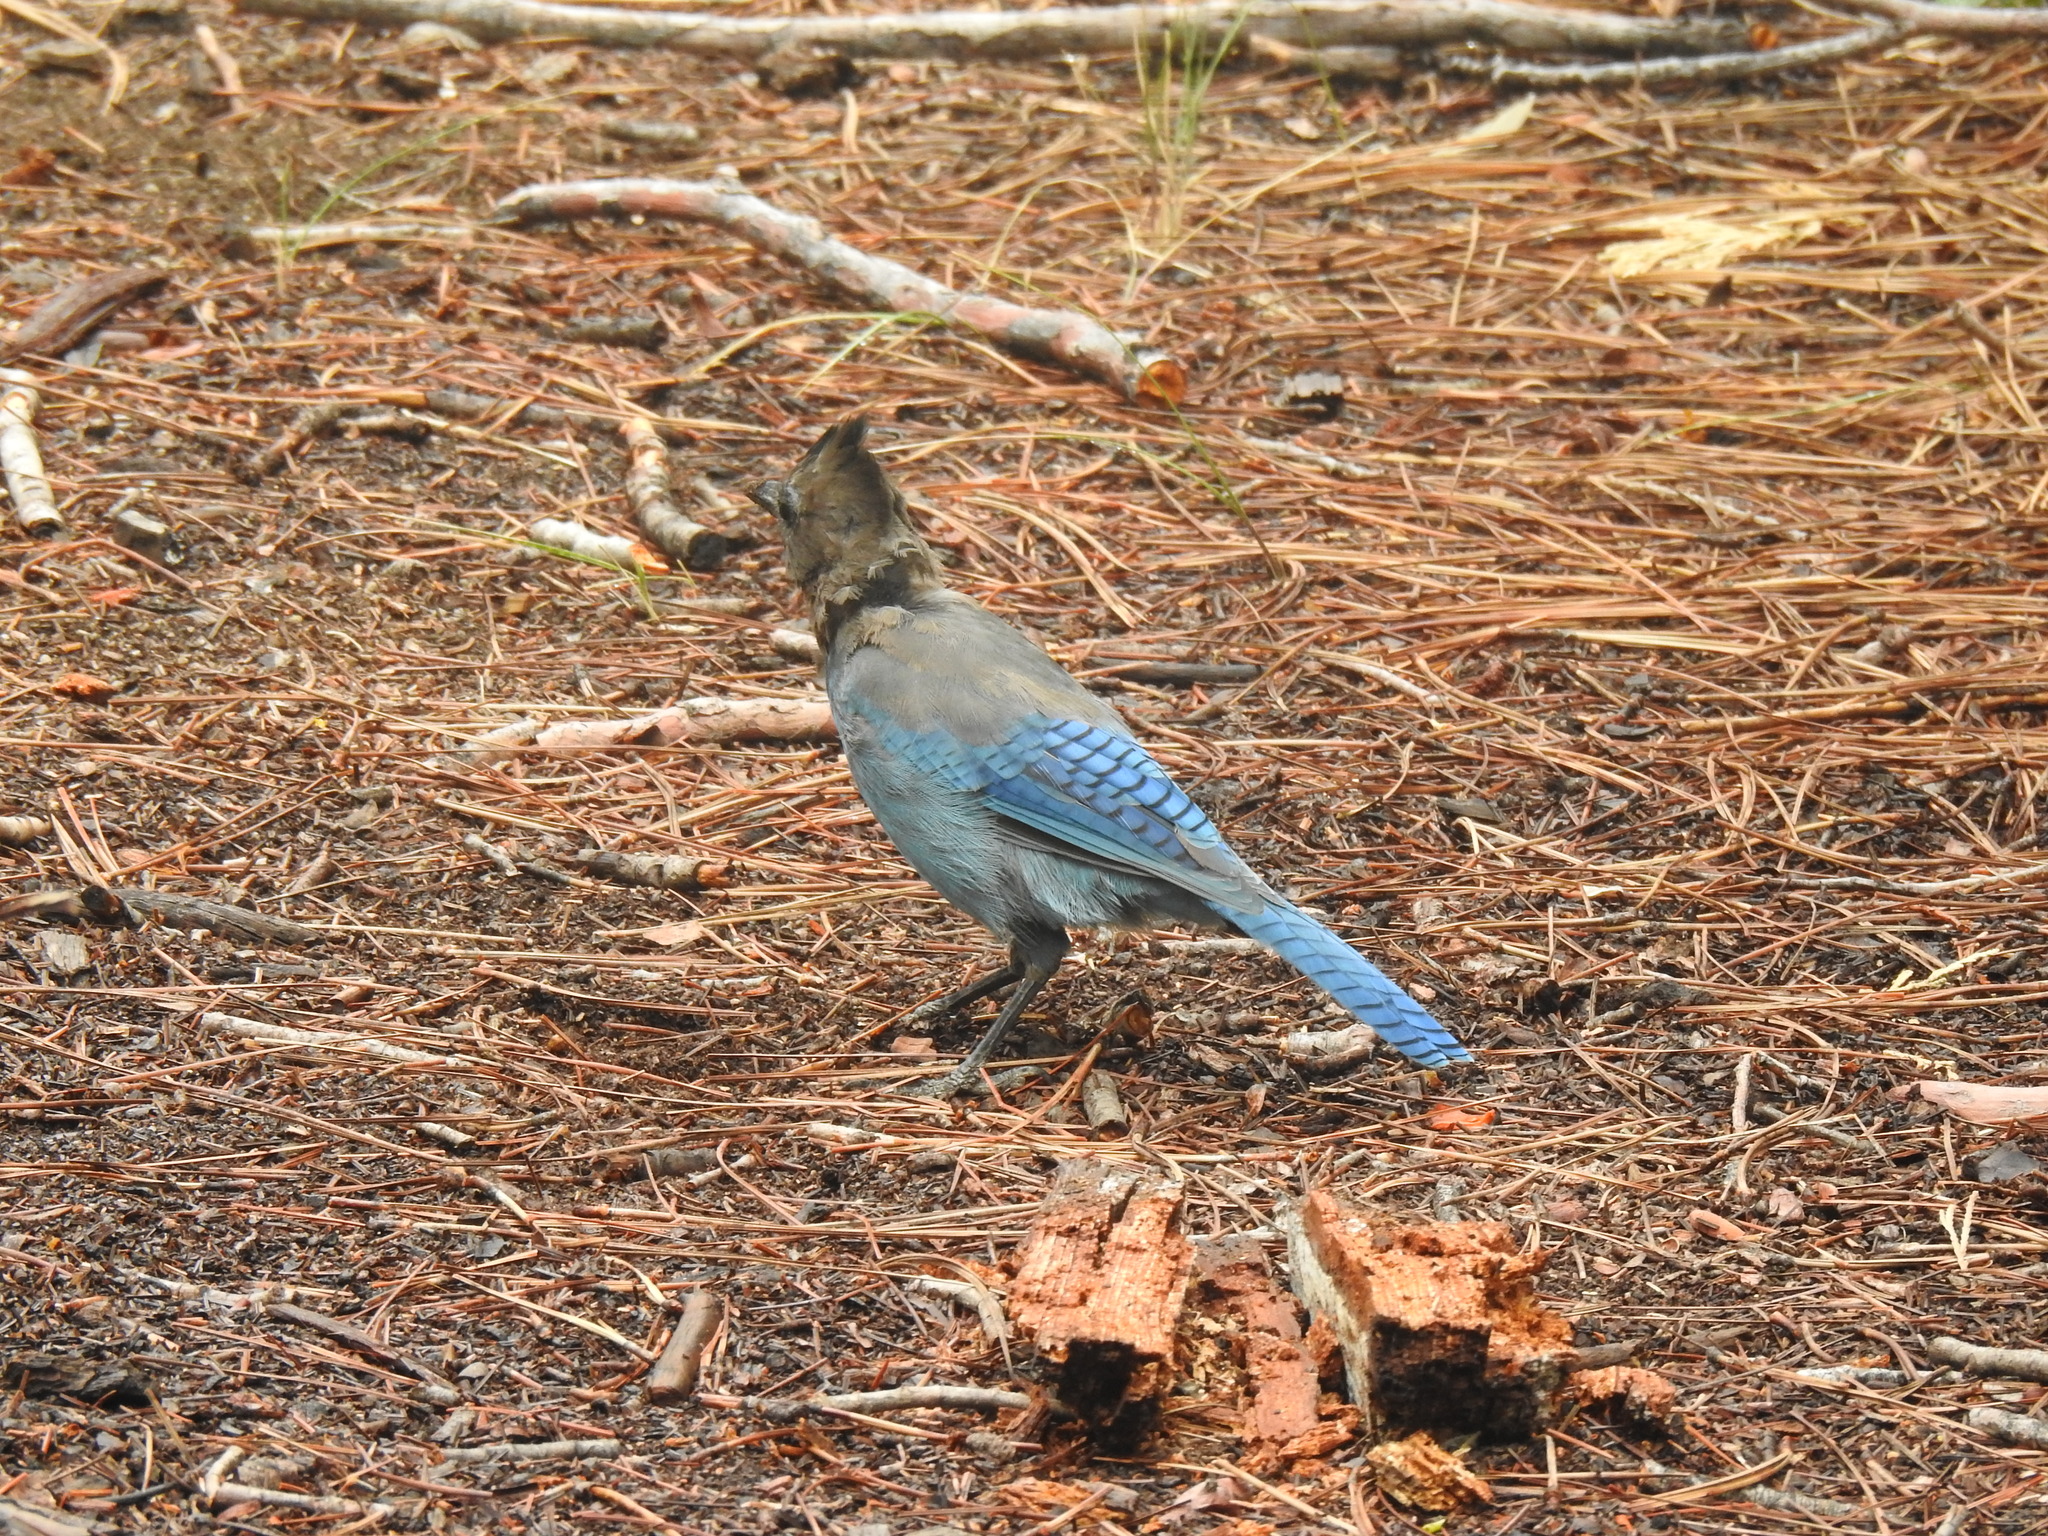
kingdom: Animalia
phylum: Chordata
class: Aves
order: Passeriformes
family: Corvidae
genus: Cyanocitta
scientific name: Cyanocitta stelleri
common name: Steller's jay
